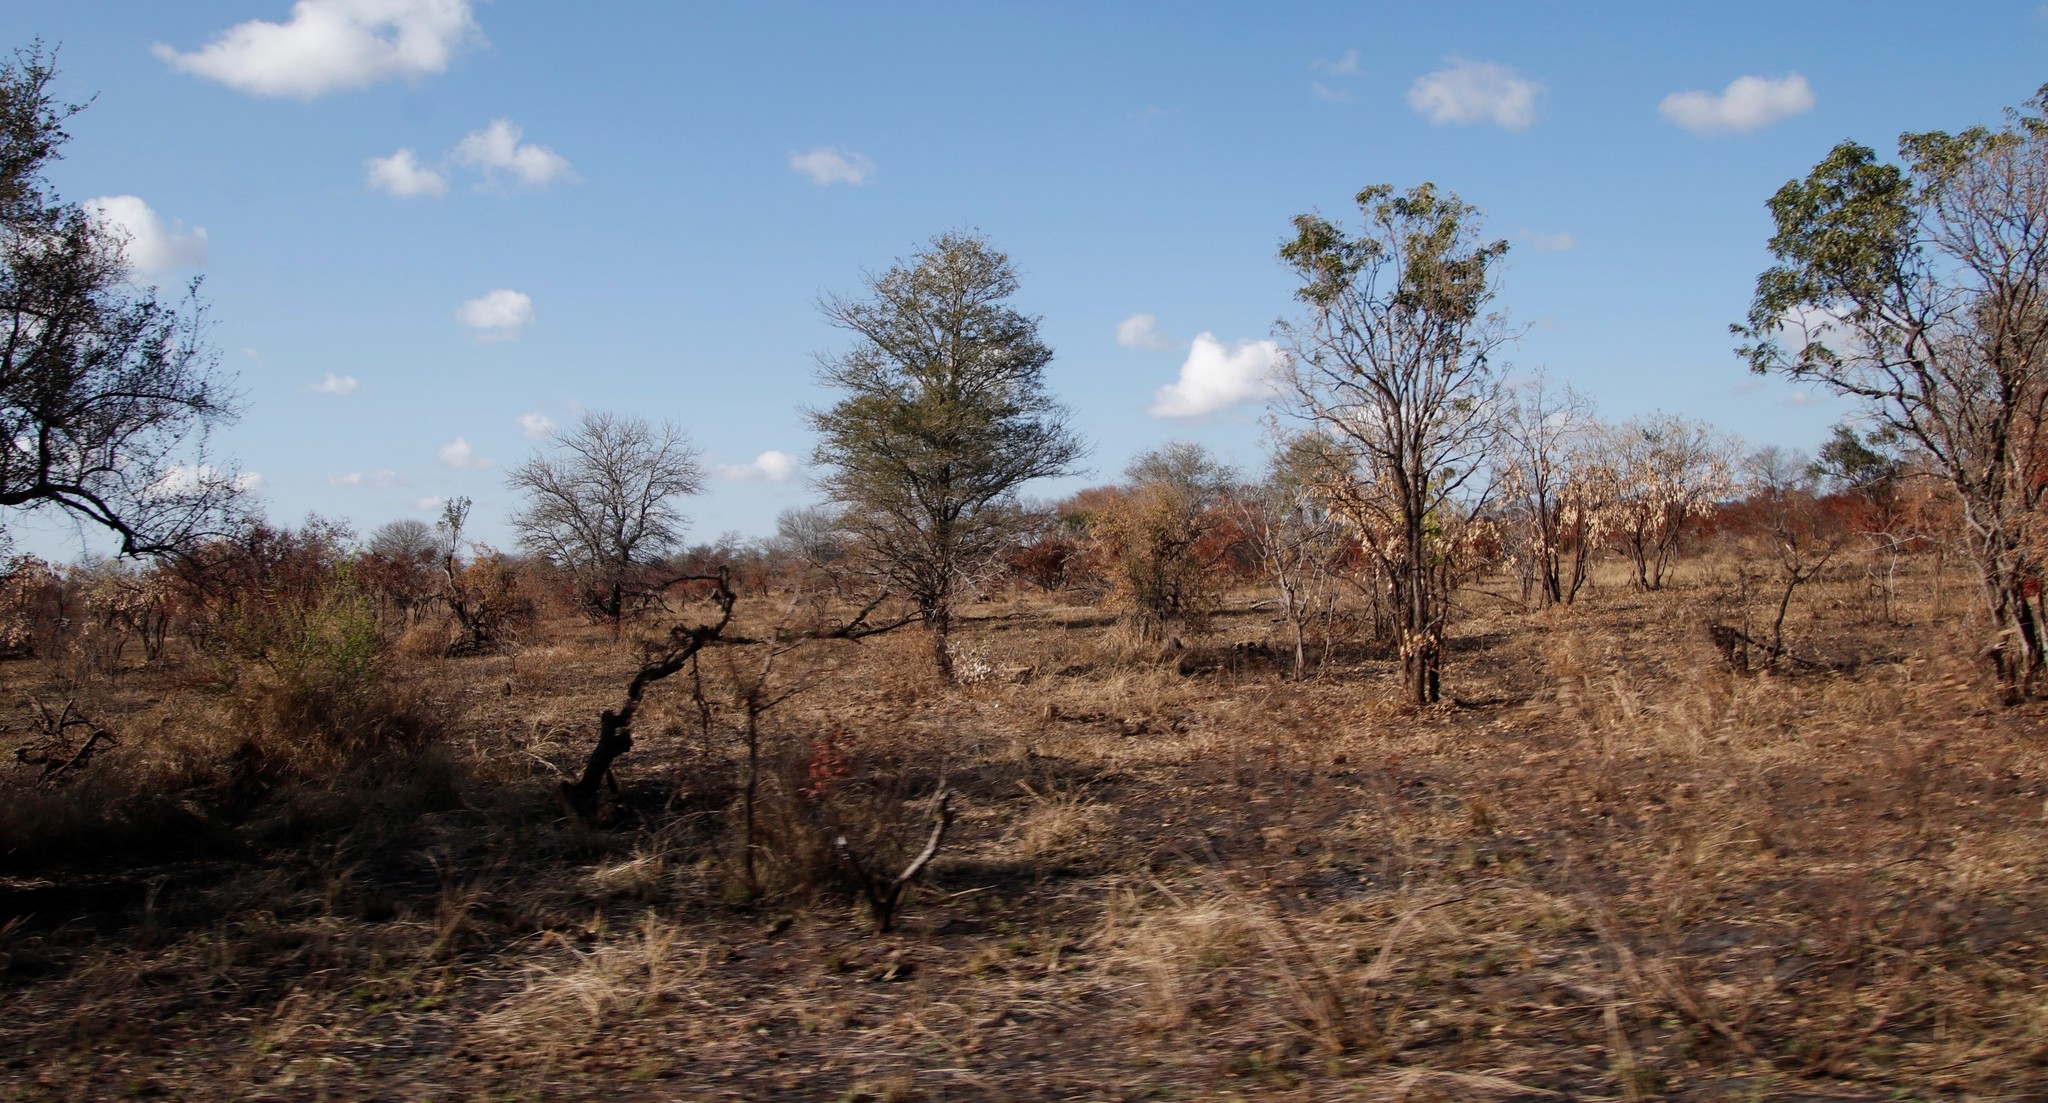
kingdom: Plantae
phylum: Tracheophyta
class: Magnoliopsida
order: Fabales
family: Fabaceae
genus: Senegalia
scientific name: Senegalia nigrescens
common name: Knobthorn
